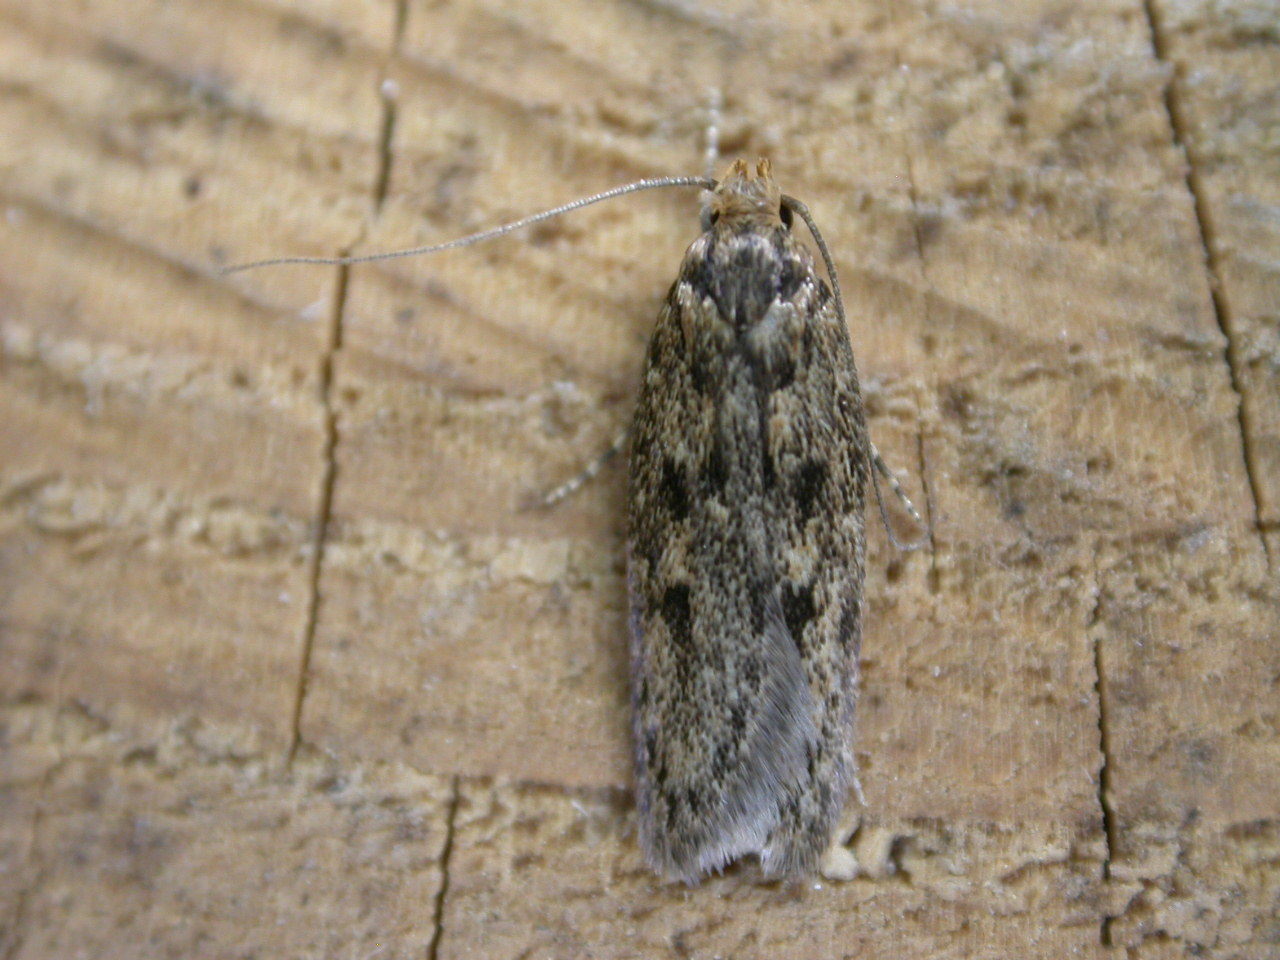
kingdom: Animalia
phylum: Arthropoda
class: Insecta
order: Lepidoptera
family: Oecophoridae
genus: Hofmannophila
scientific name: Hofmannophila pseudospretella
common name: Brown house moth
